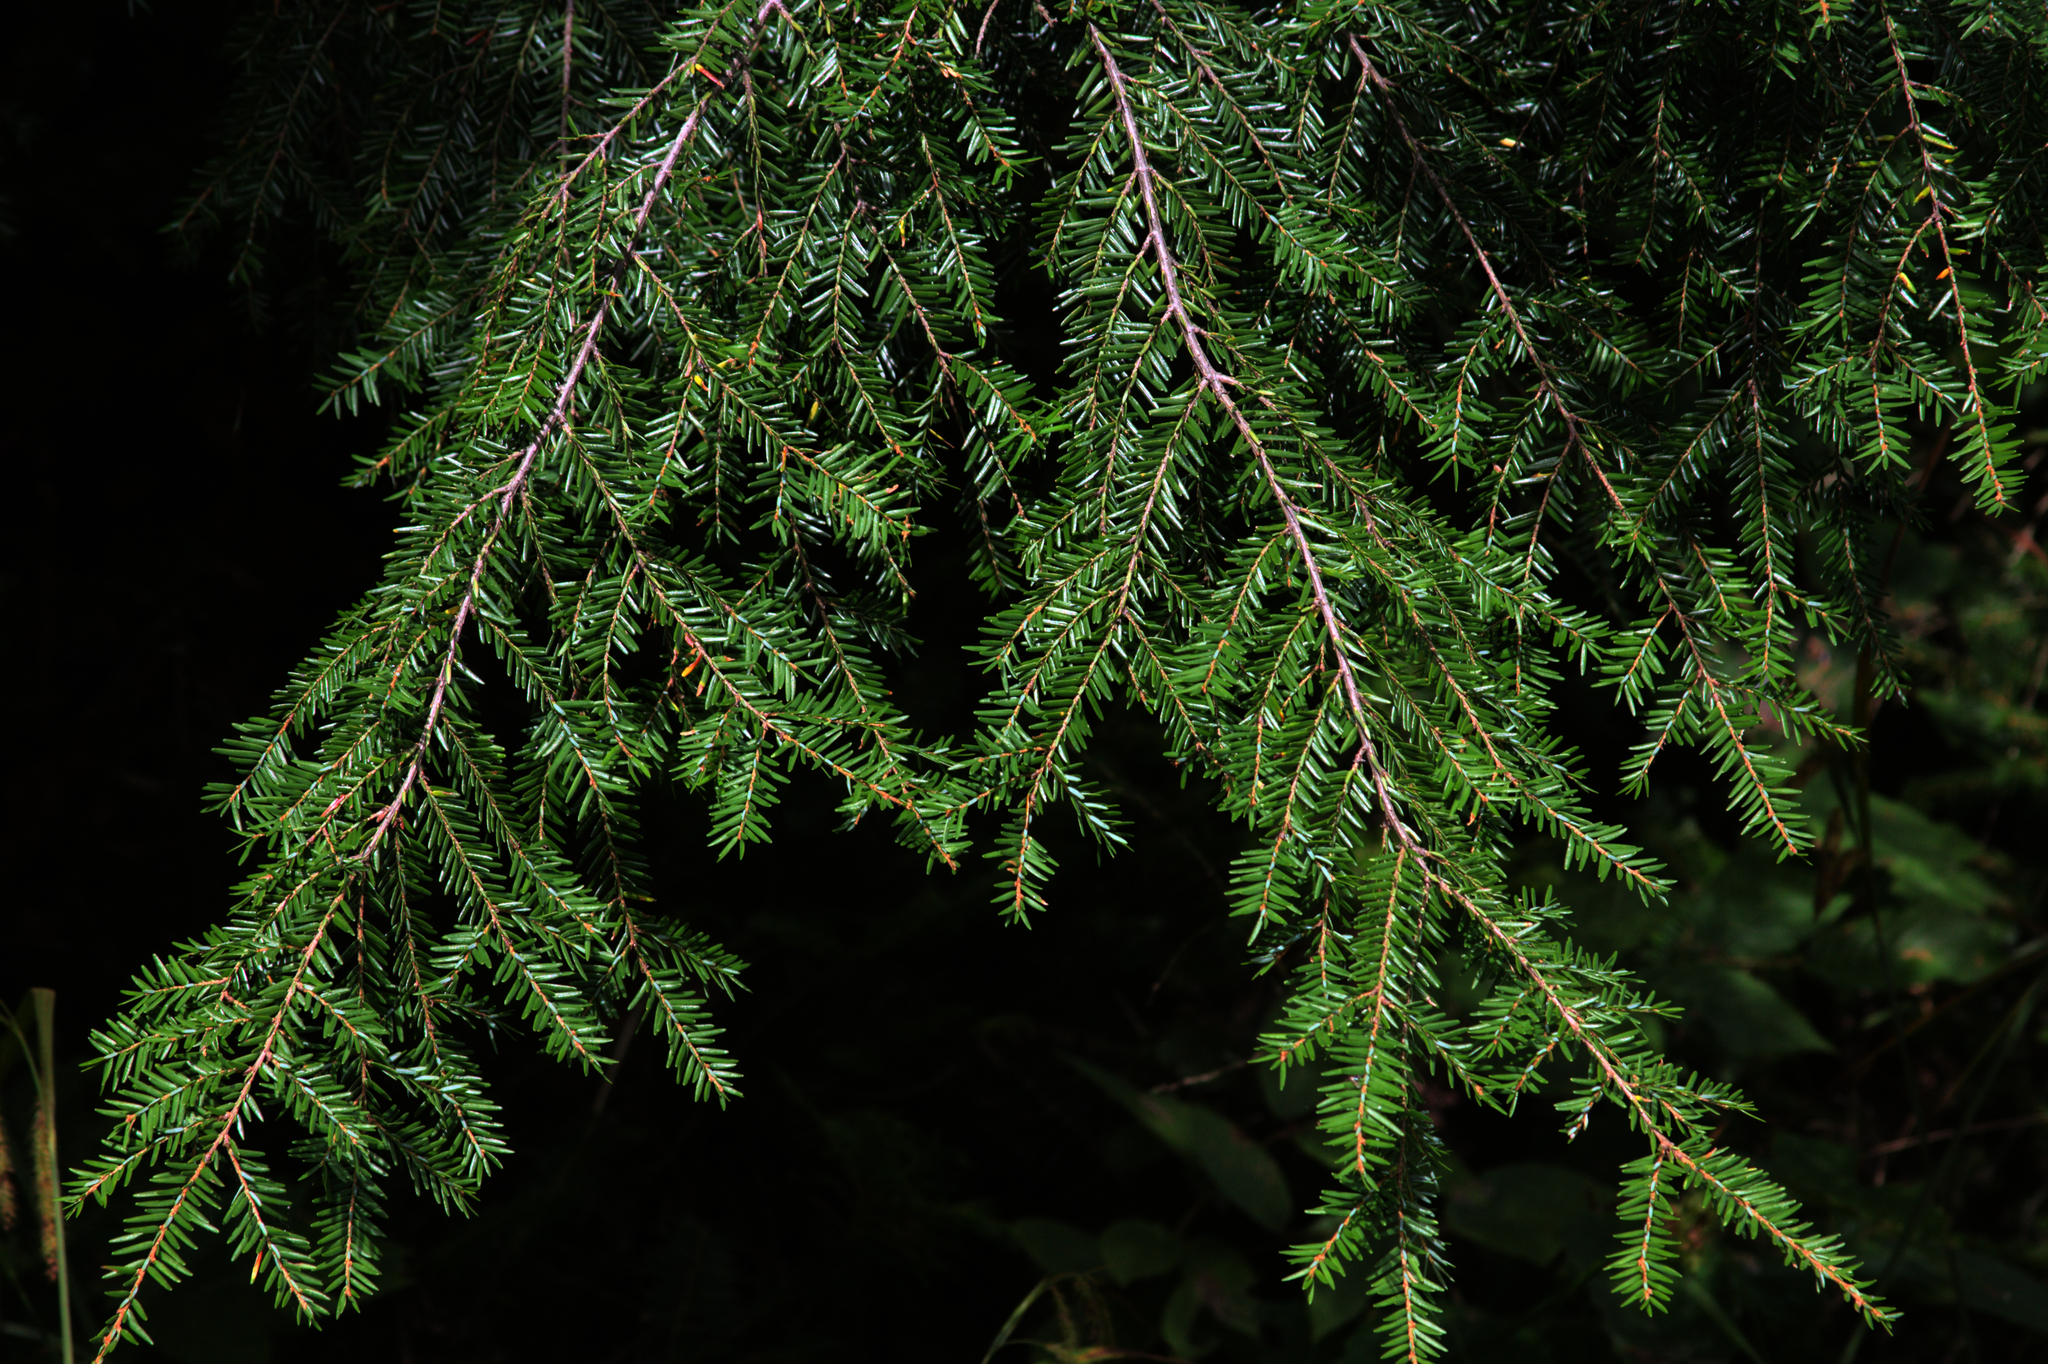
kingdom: Plantae
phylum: Tracheophyta
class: Pinopsida
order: Pinales
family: Pinaceae
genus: Tsuga
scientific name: Tsuga canadensis
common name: Eastern hemlock
